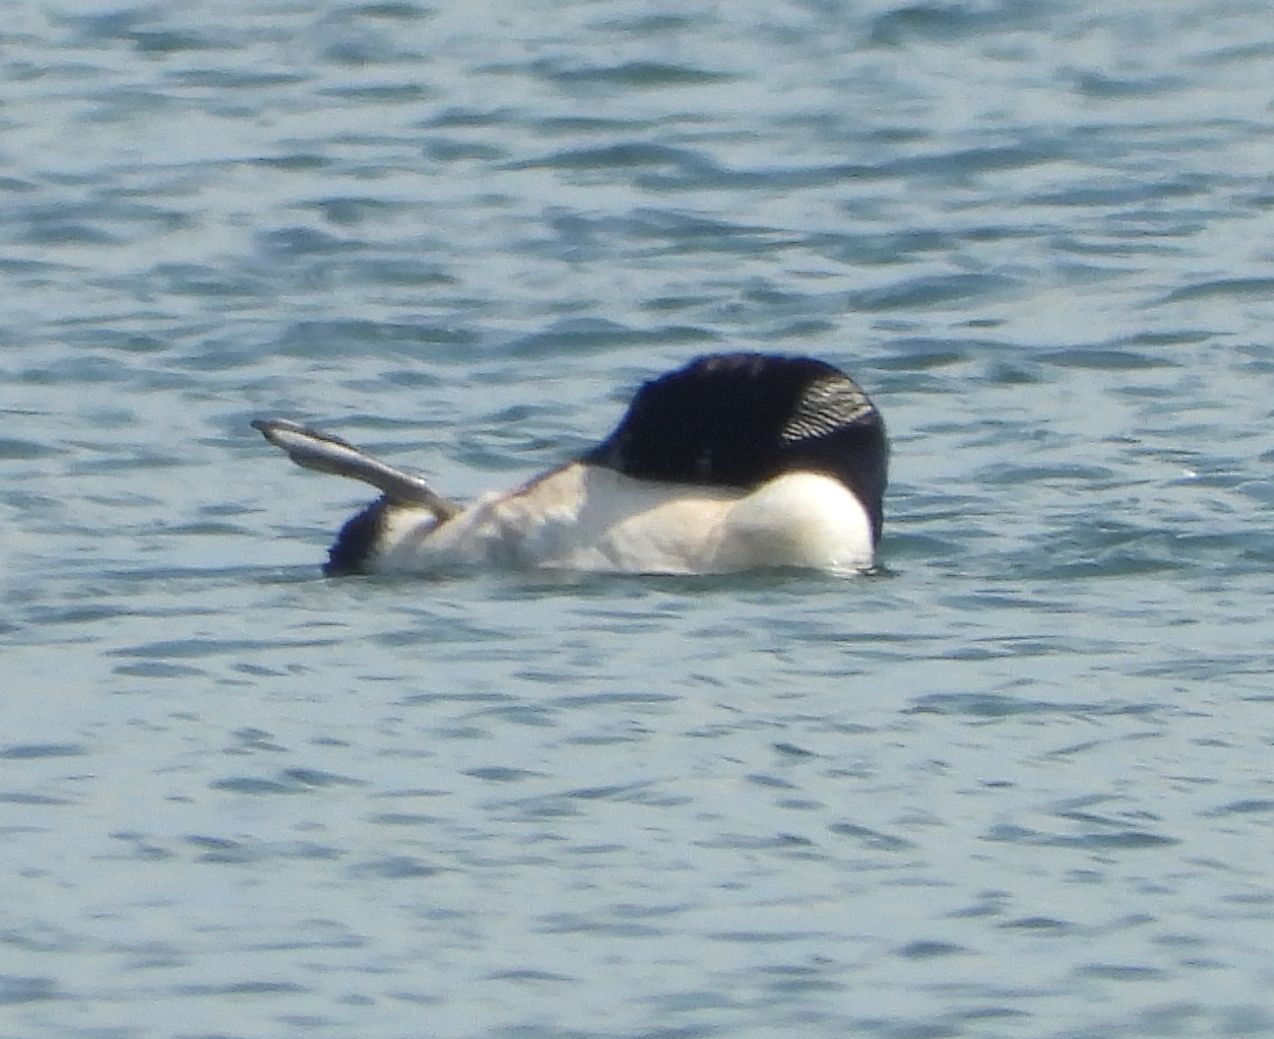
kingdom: Animalia
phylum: Chordata
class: Aves
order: Gaviiformes
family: Gaviidae
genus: Gavia
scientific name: Gavia immer
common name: Common loon
